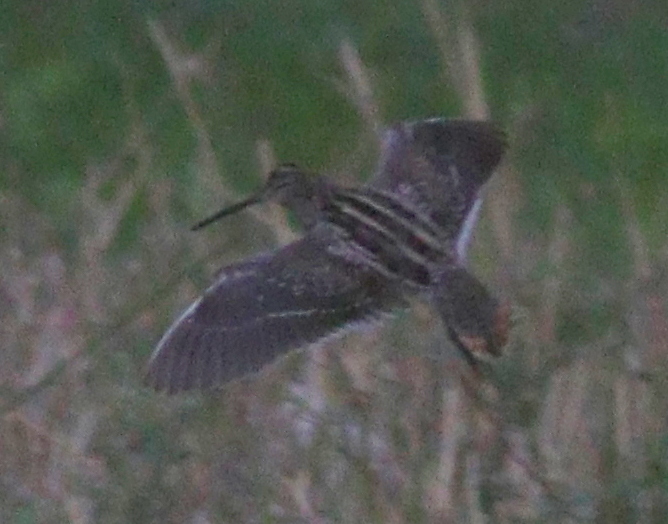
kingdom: Animalia
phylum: Chordata
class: Aves
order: Charadriiformes
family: Scolopacidae
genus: Gallinago
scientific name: Gallinago gallinago
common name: Common snipe
